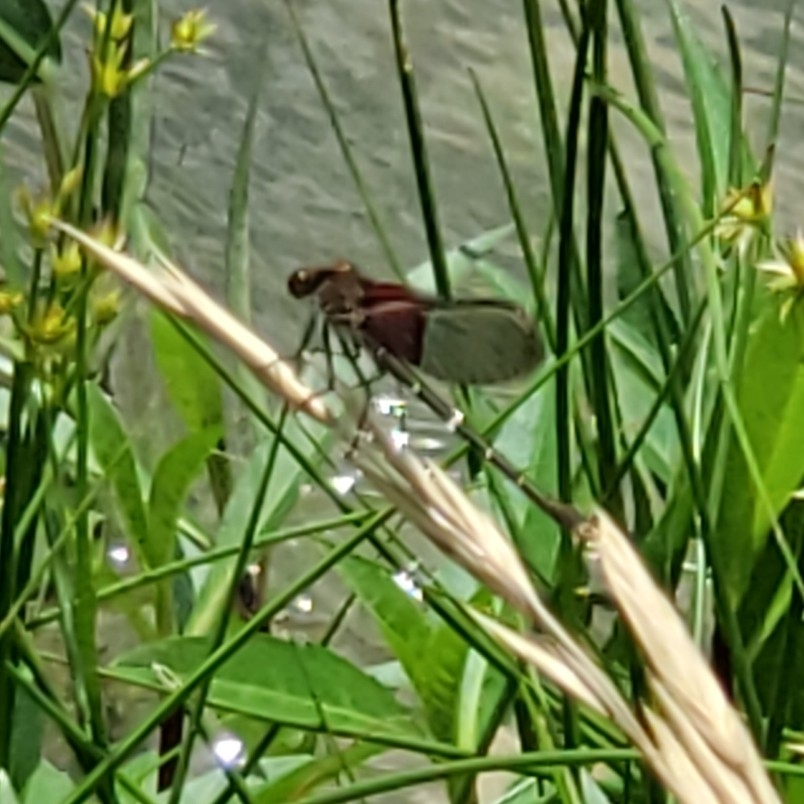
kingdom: Animalia
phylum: Arthropoda
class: Insecta
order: Odonata
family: Calopterygidae
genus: Hetaerina
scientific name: Hetaerina americana
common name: American rubyspot
